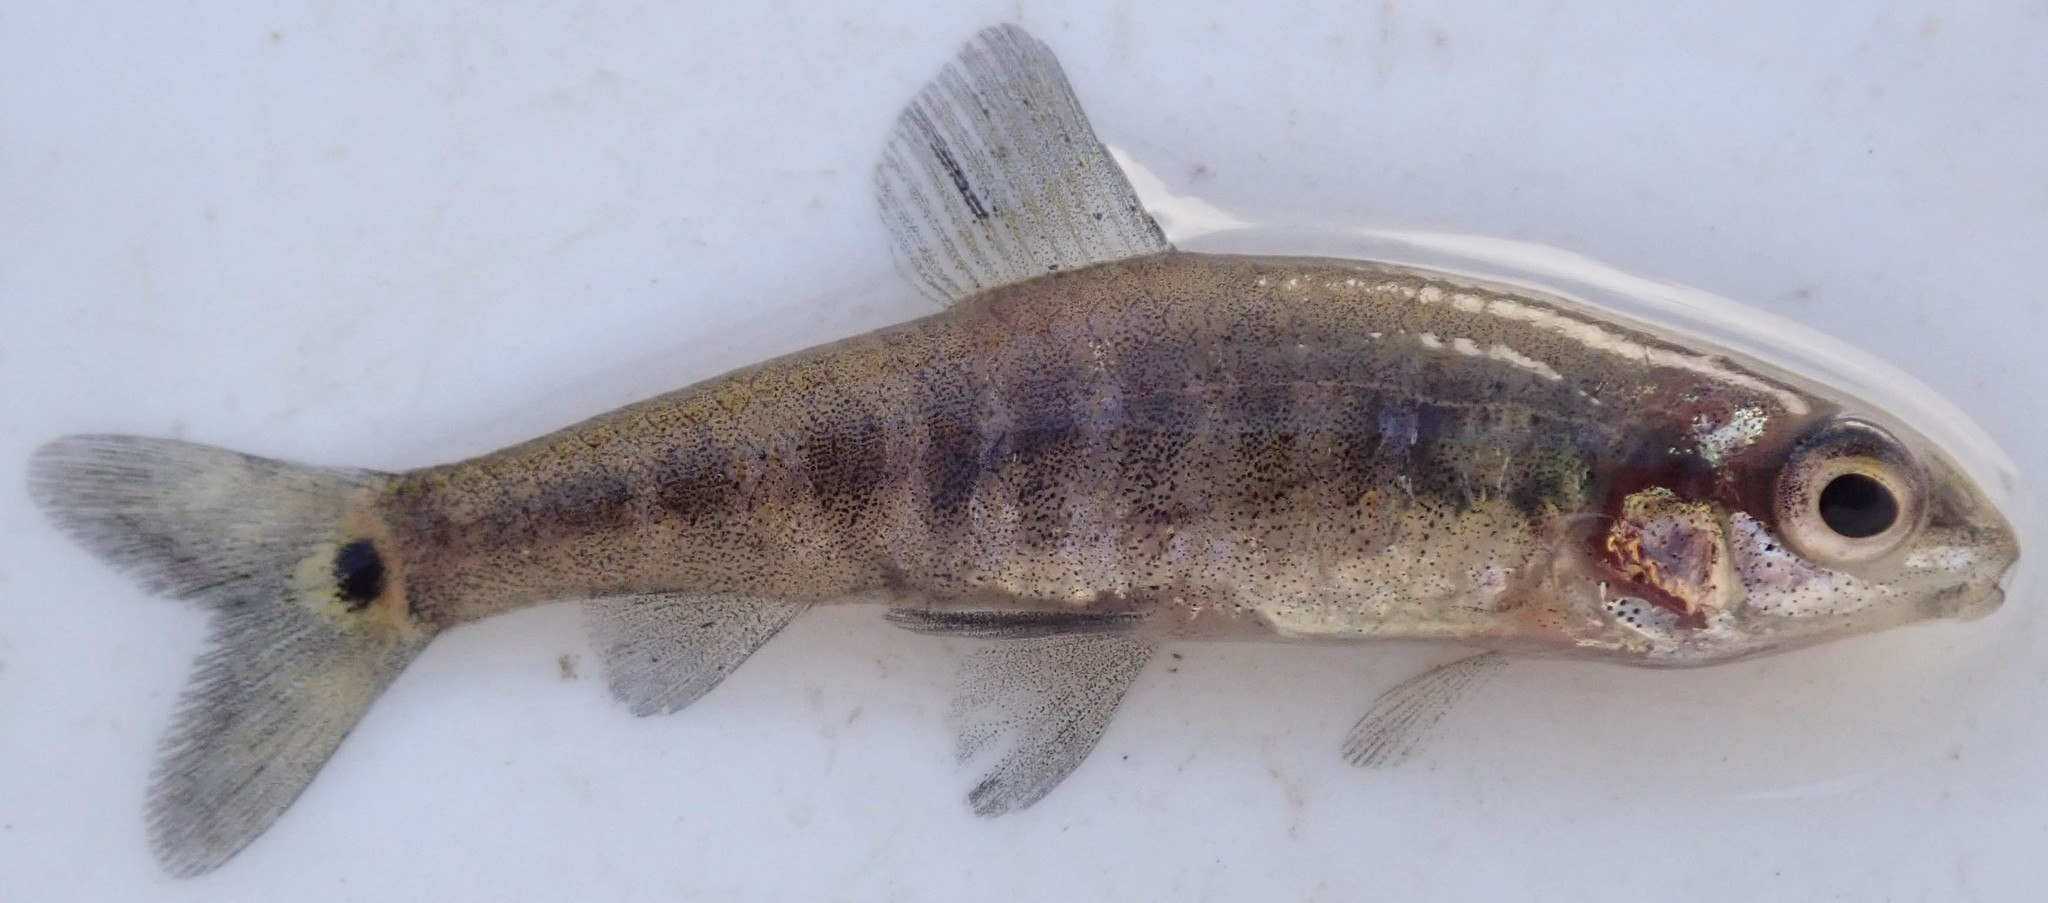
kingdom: Animalia
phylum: Chordata
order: Characiformes
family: Distichodontidae
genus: Nannocharax
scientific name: Nannocharax machadoi
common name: Dwarf citharine
